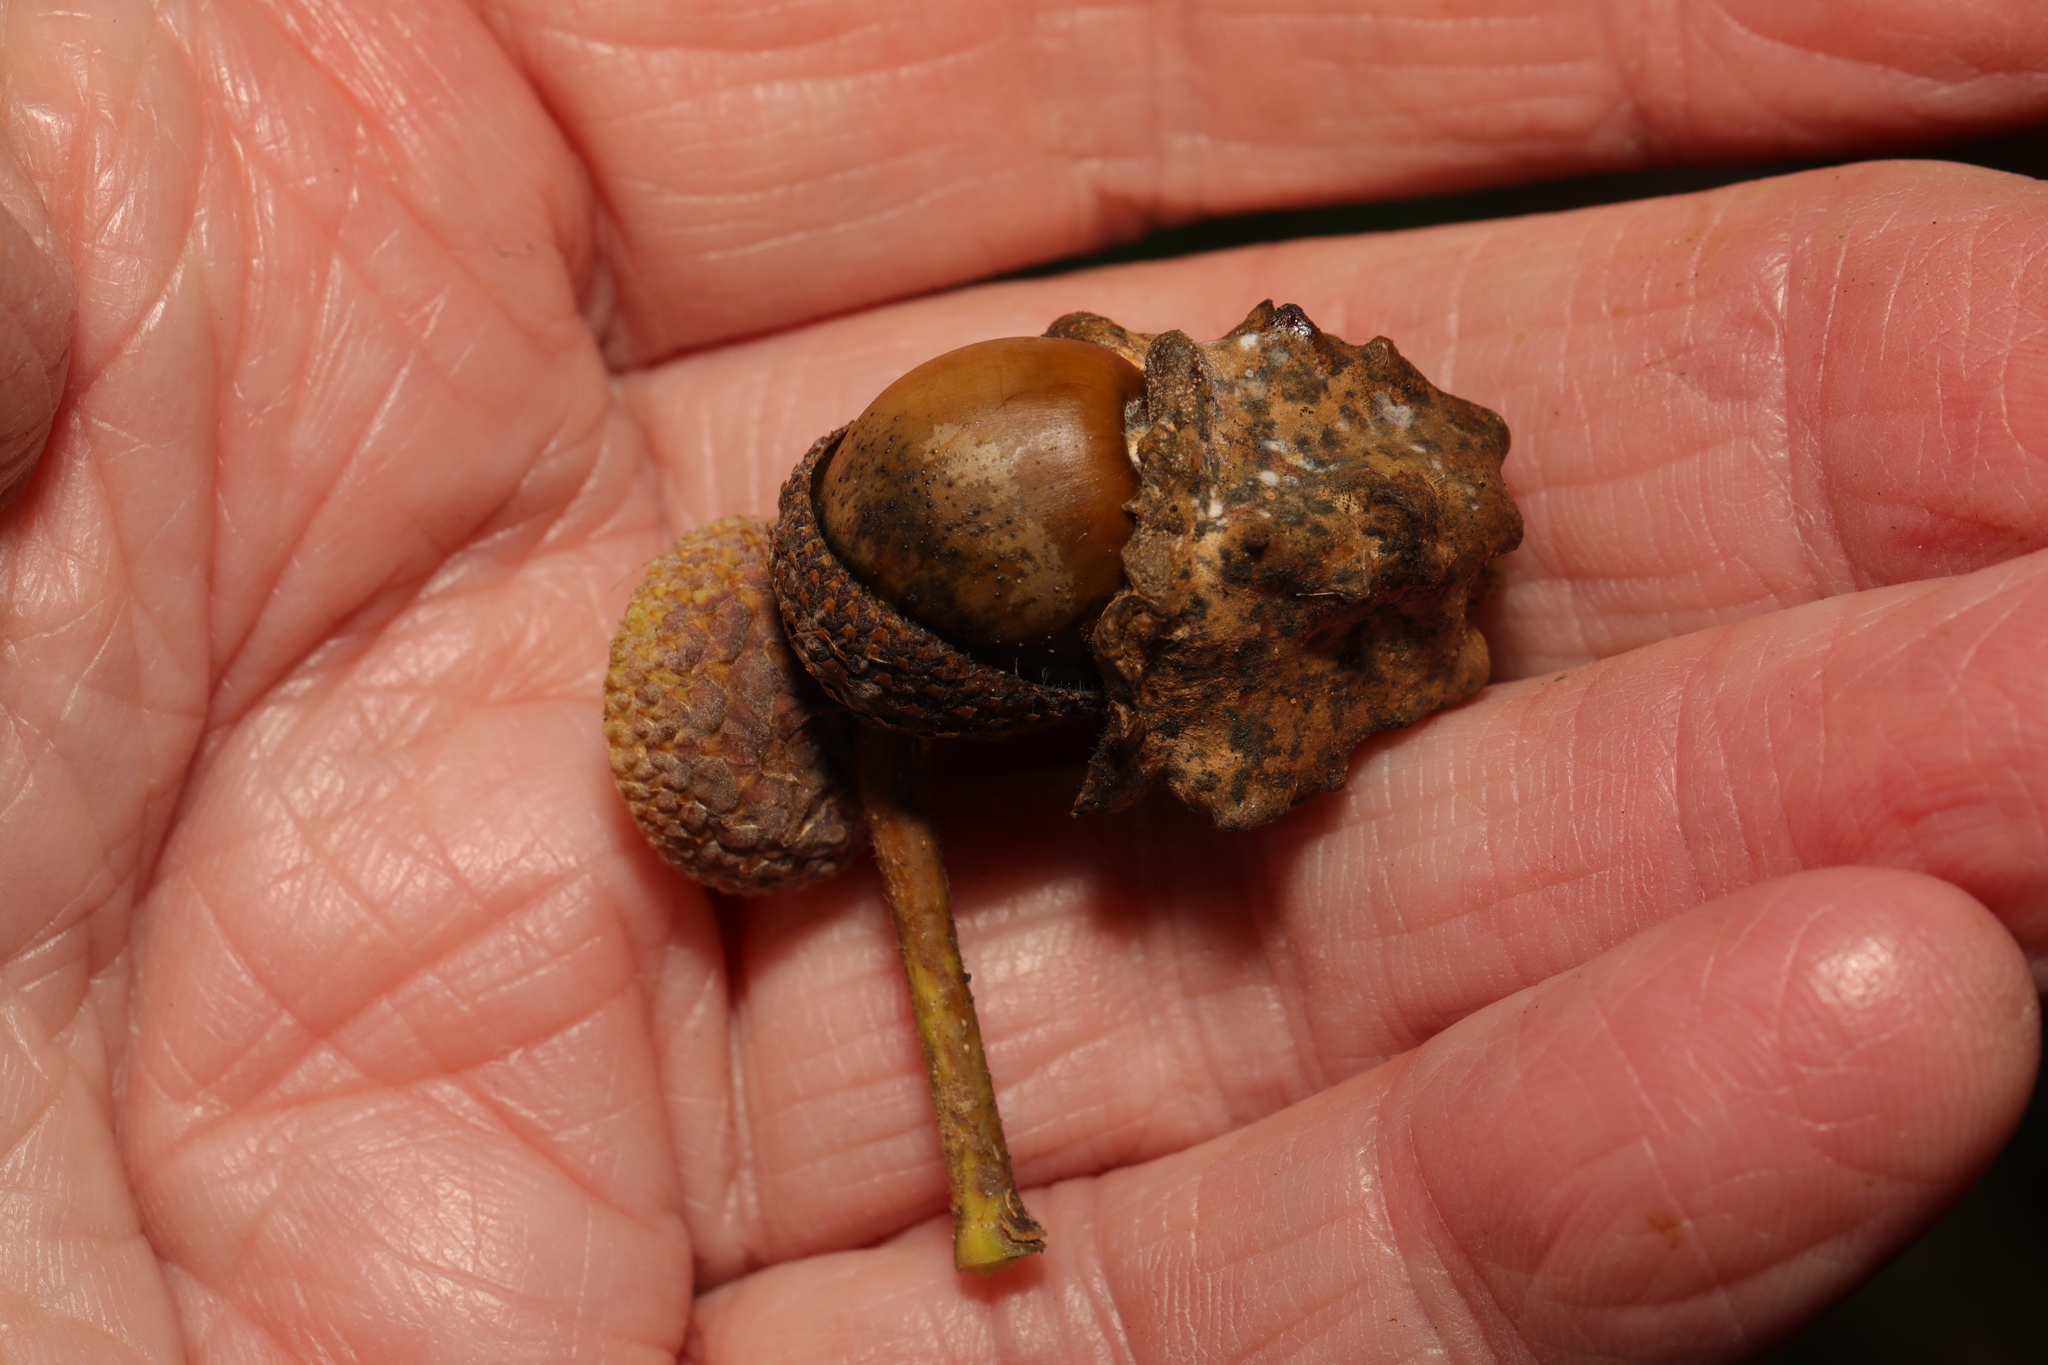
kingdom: Animalia
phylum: Arthropoda
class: Insecta
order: Hymenoptera
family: Cynipidae
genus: Andricus
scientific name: Andricus quercuscalicis
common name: Knopper gall
